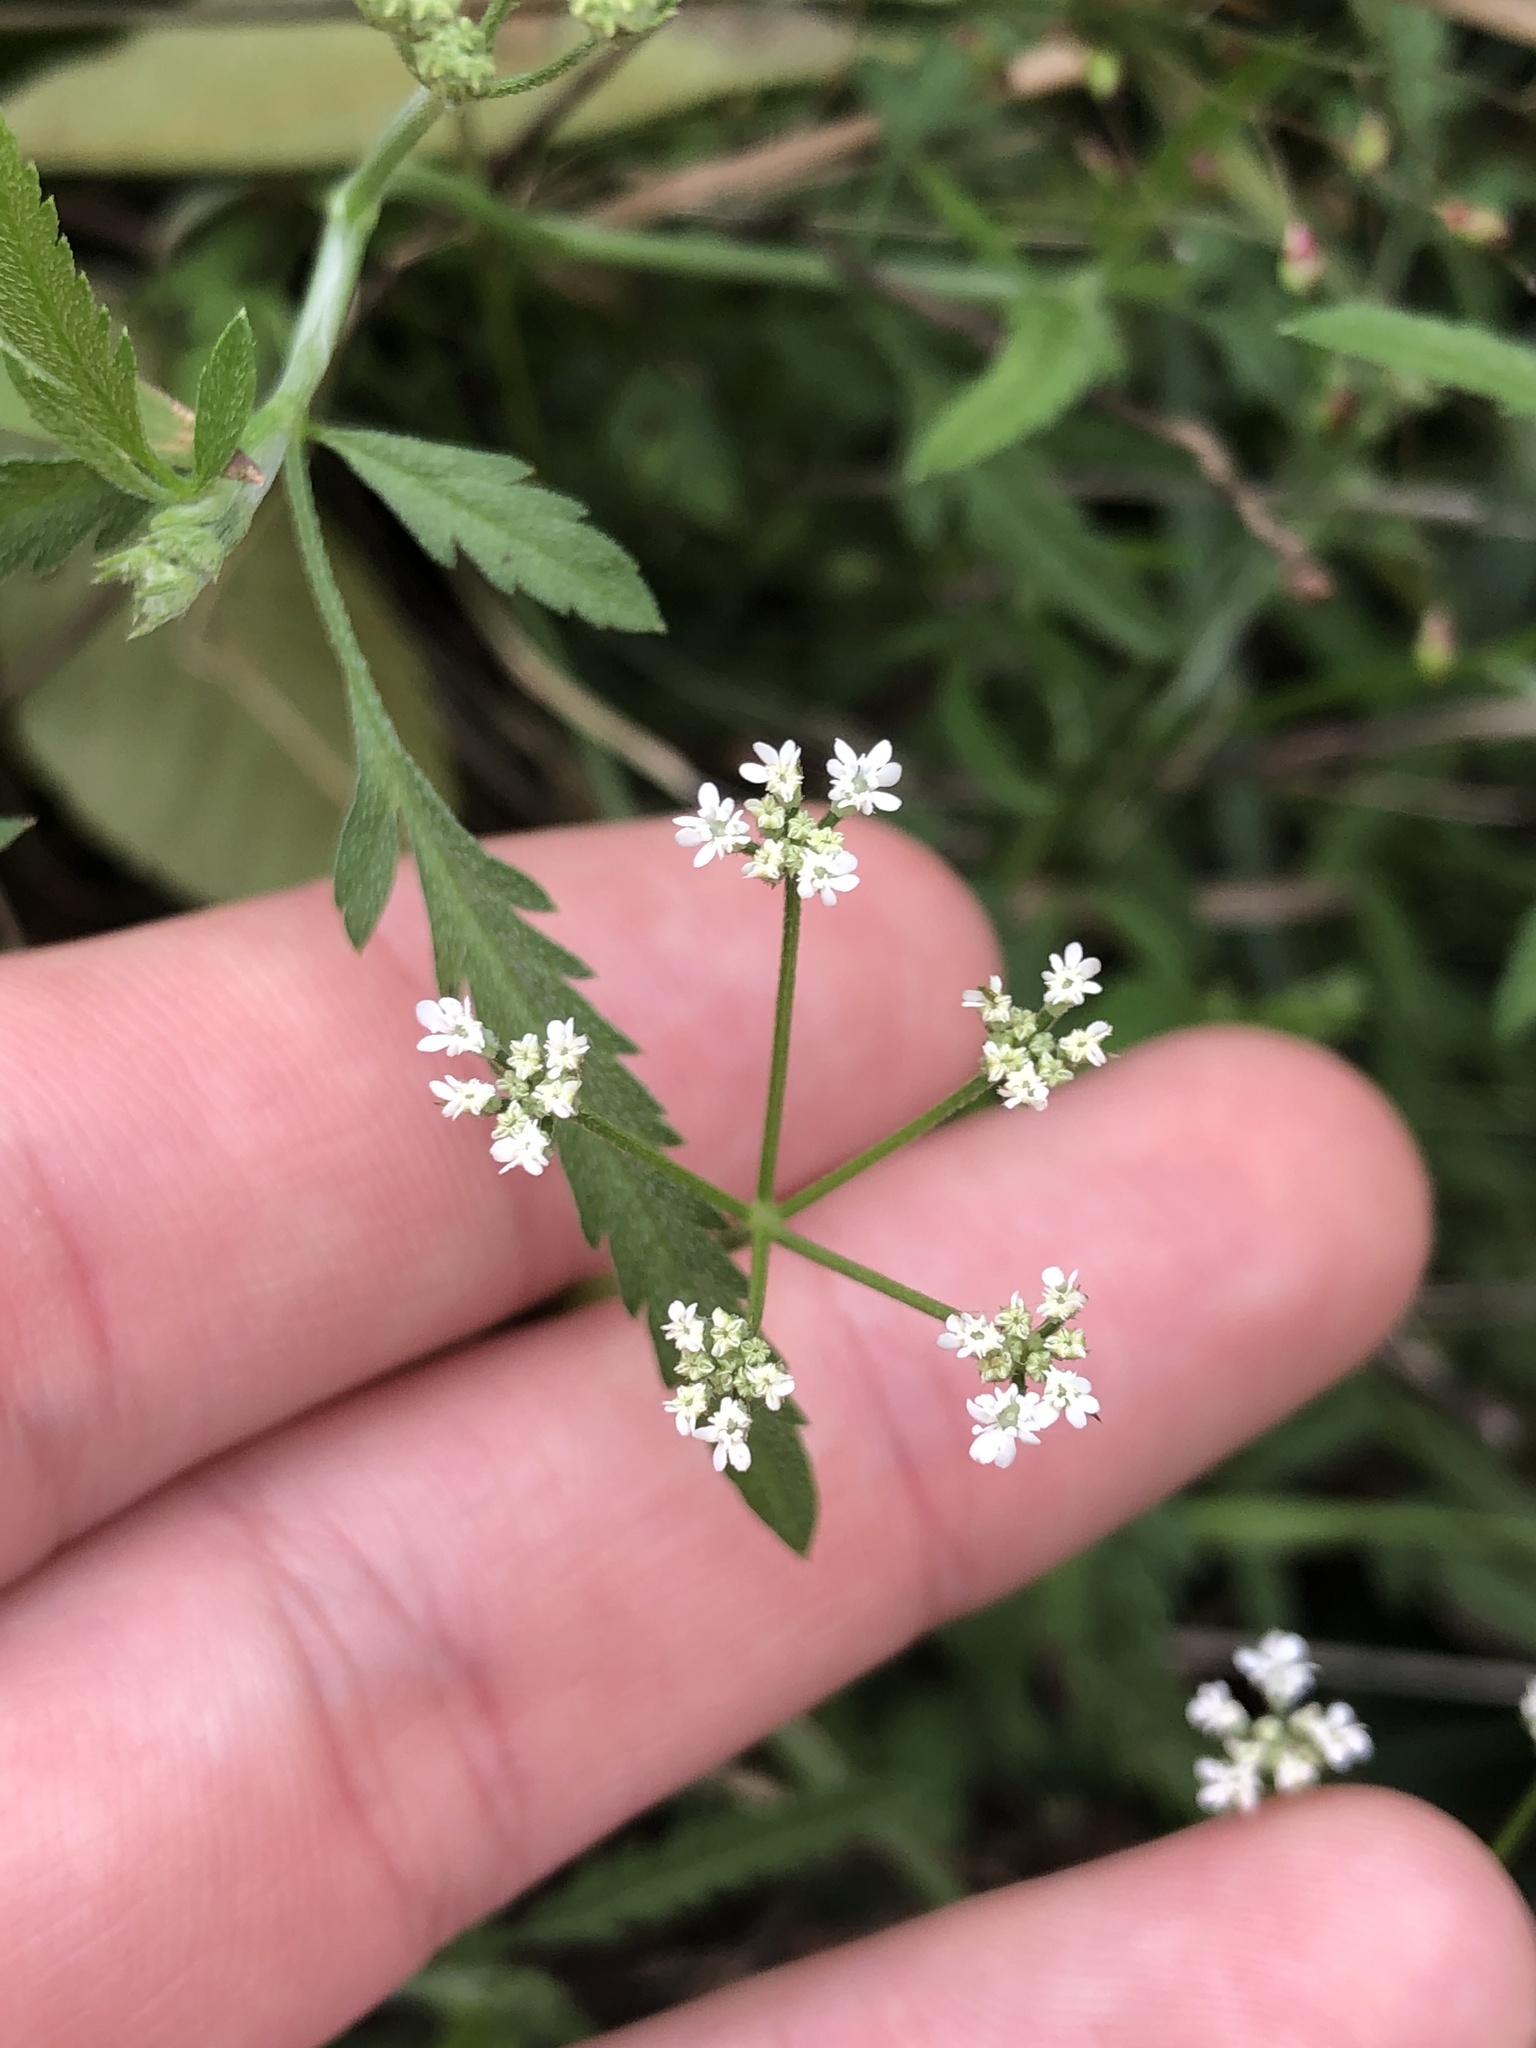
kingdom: Plantae
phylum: Tracheophyta
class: Magnoliopsida
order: Apiales
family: Apiaceae
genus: Torilis
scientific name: Torilis arvensis
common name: Spreading hedge-parsley
